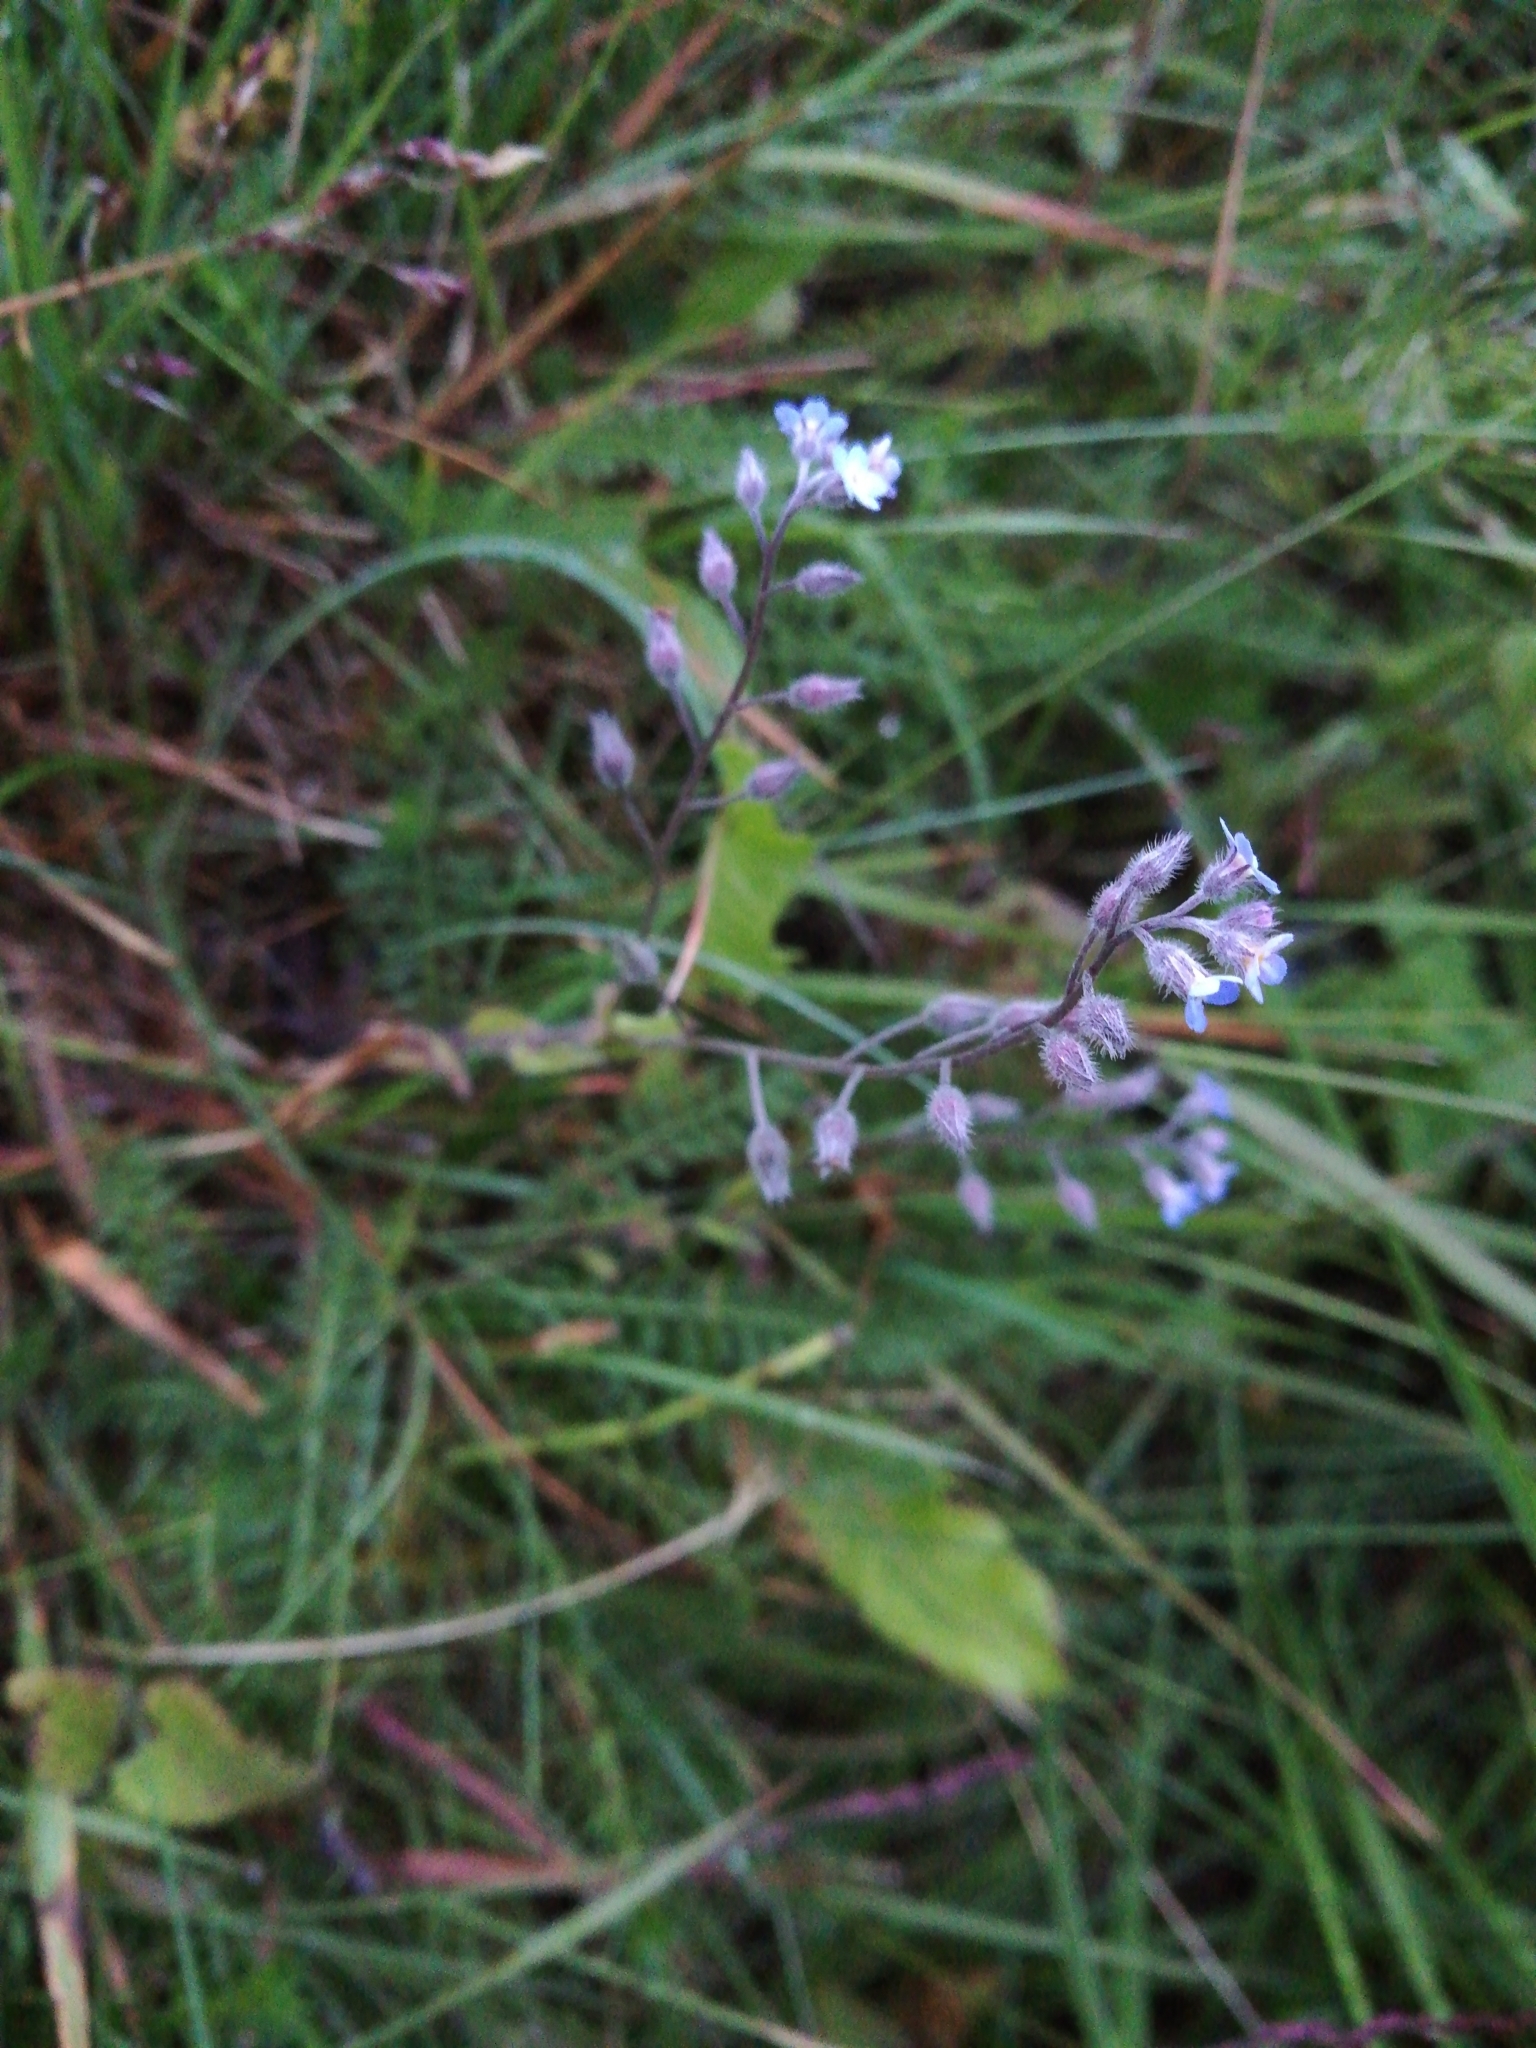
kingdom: Plantae
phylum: Tracheophyta
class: Magnoliopsida
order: Boraginales
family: Boraginaceae
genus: Myosotis
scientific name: Myosotis arvensis
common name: Field forget-me-not
